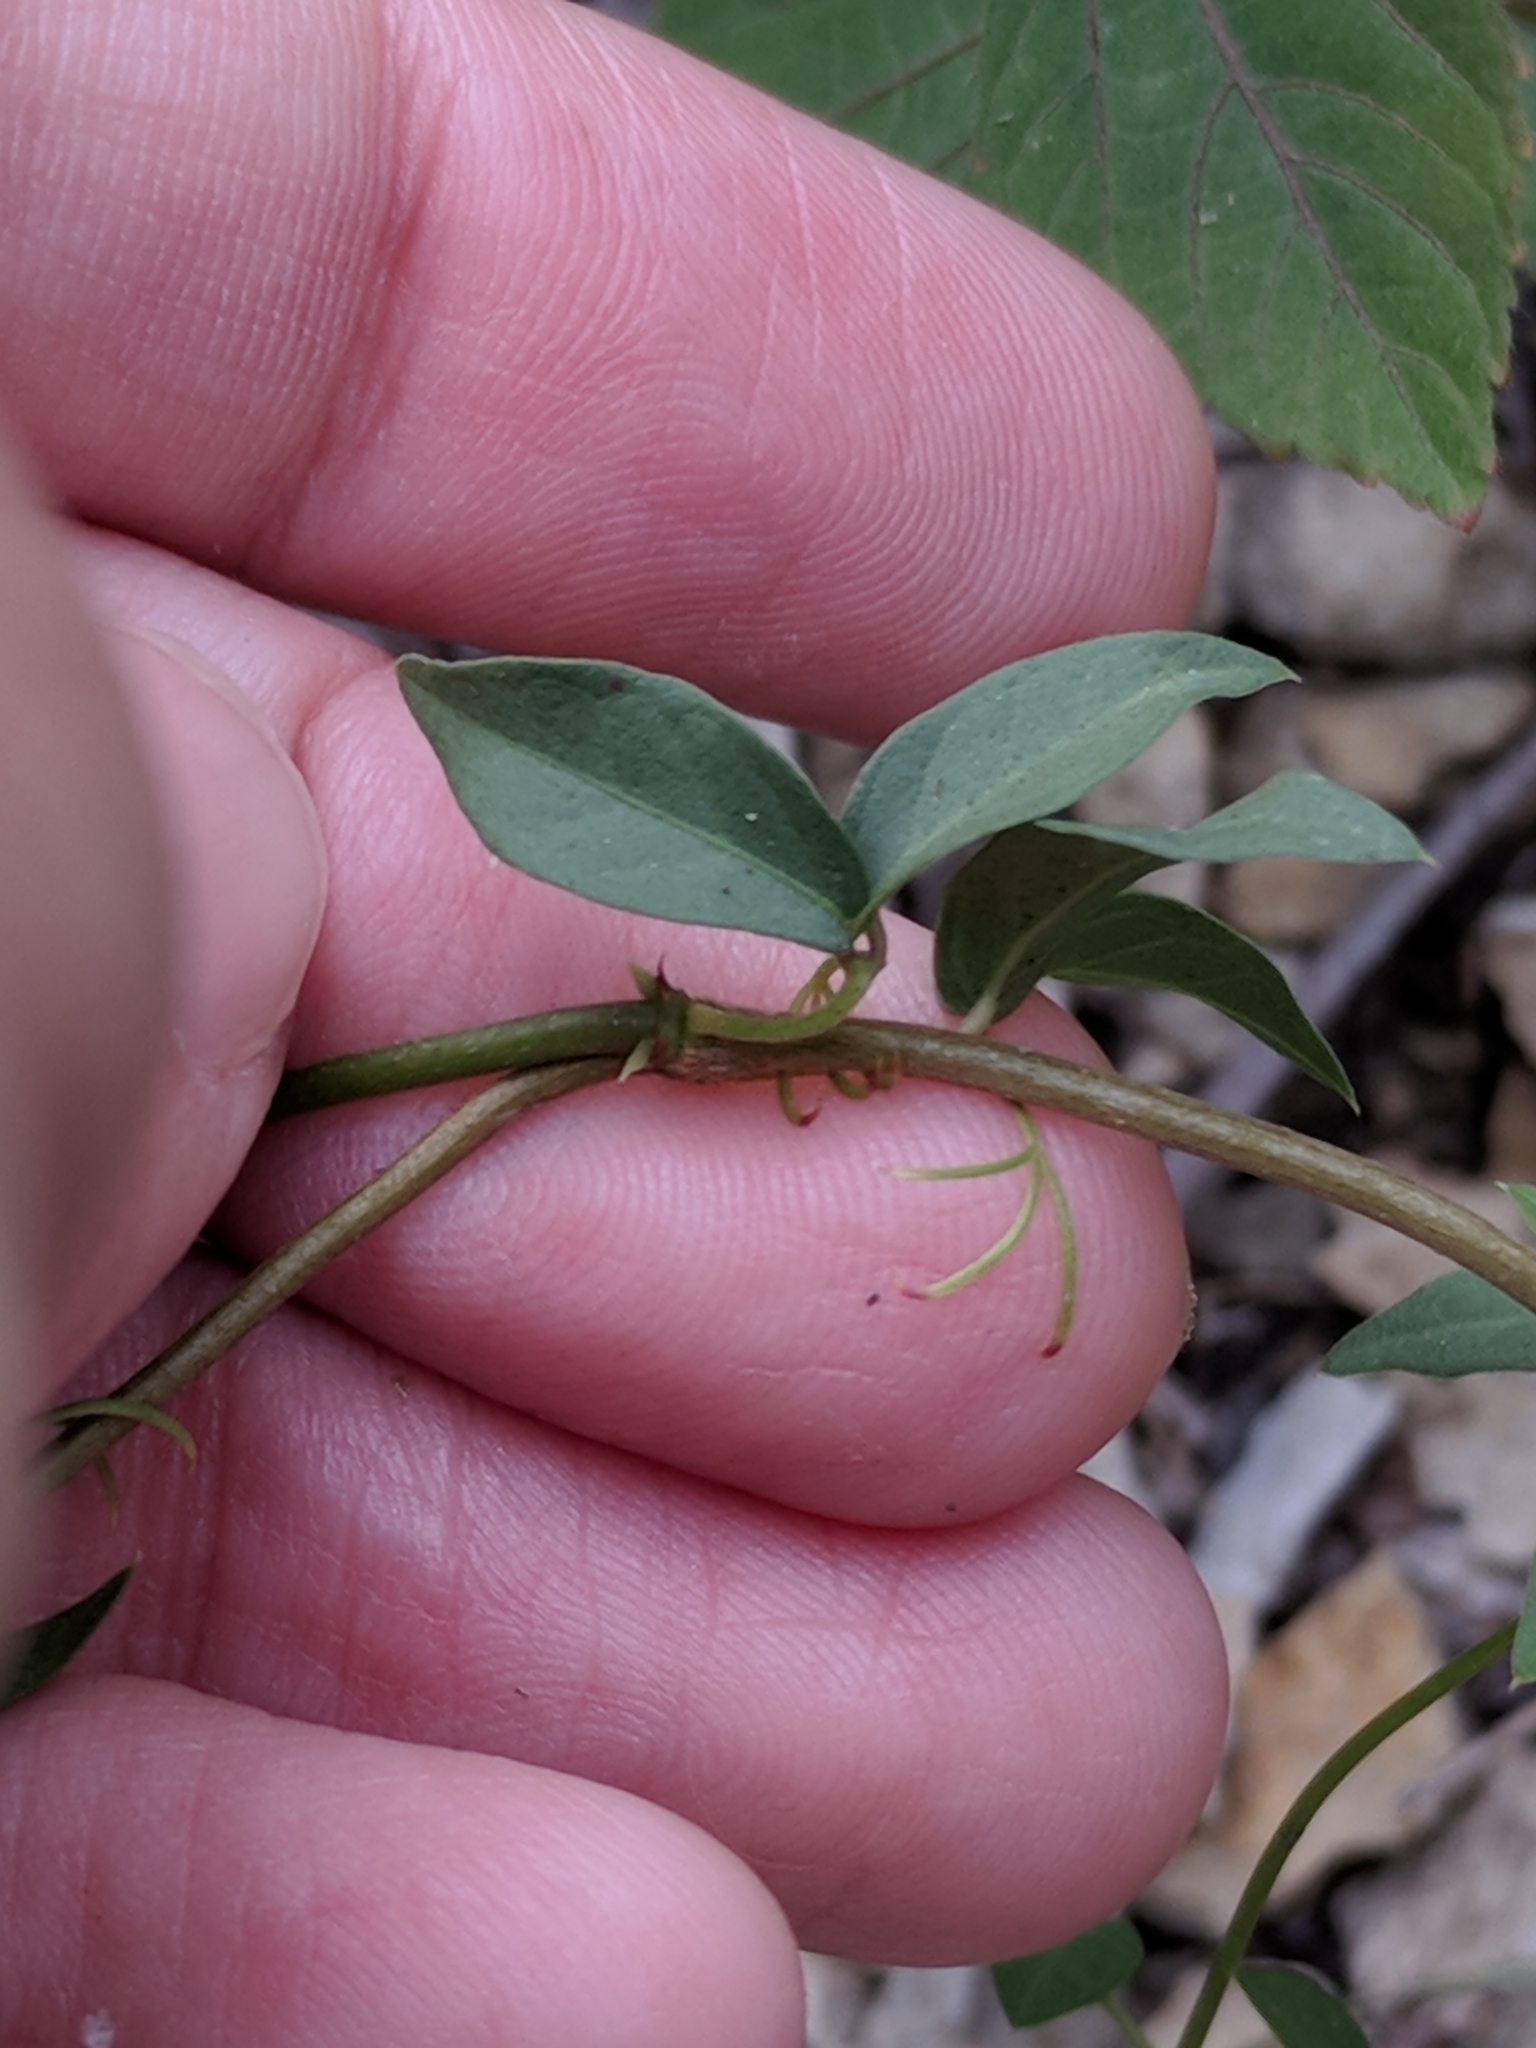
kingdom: Plantae
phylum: Tracheophyta
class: Magnoliopsida
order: Lamiales
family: Bignoniaceae
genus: Dolichandra
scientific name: Dolichandra unguis-cati
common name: Catclaw vine
